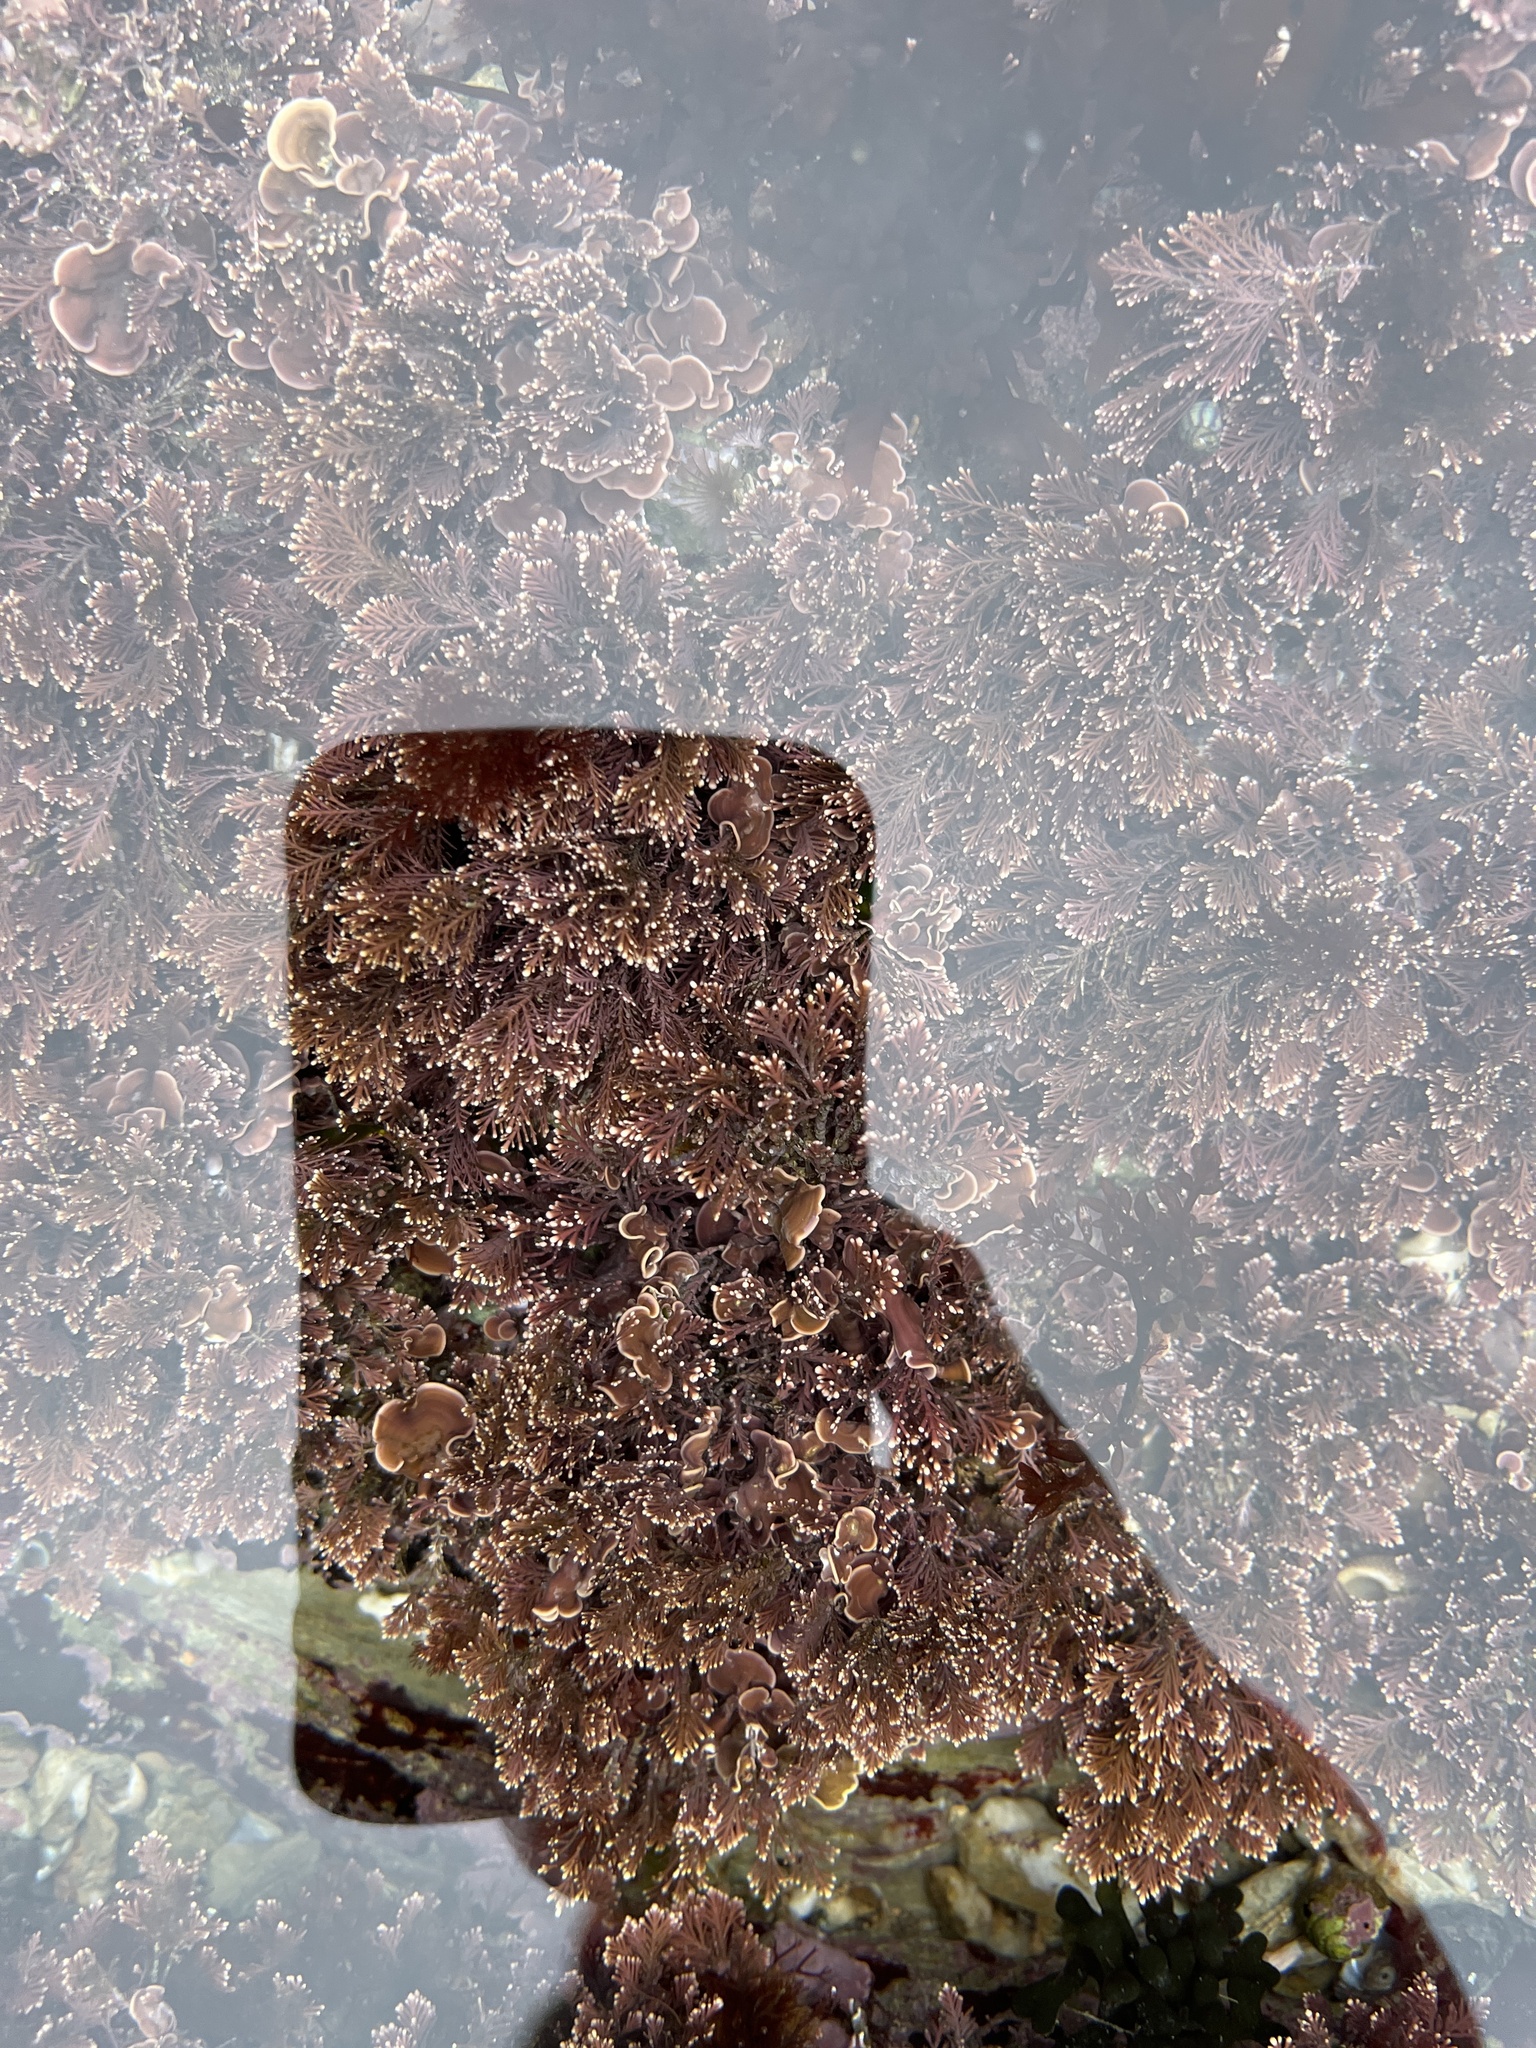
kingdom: Plantae
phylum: Rhodophyta
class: Florideophyceae
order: Corallinales
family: Corallinaceae
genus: Corallina
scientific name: Corallina officinalis
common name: Coral weed
